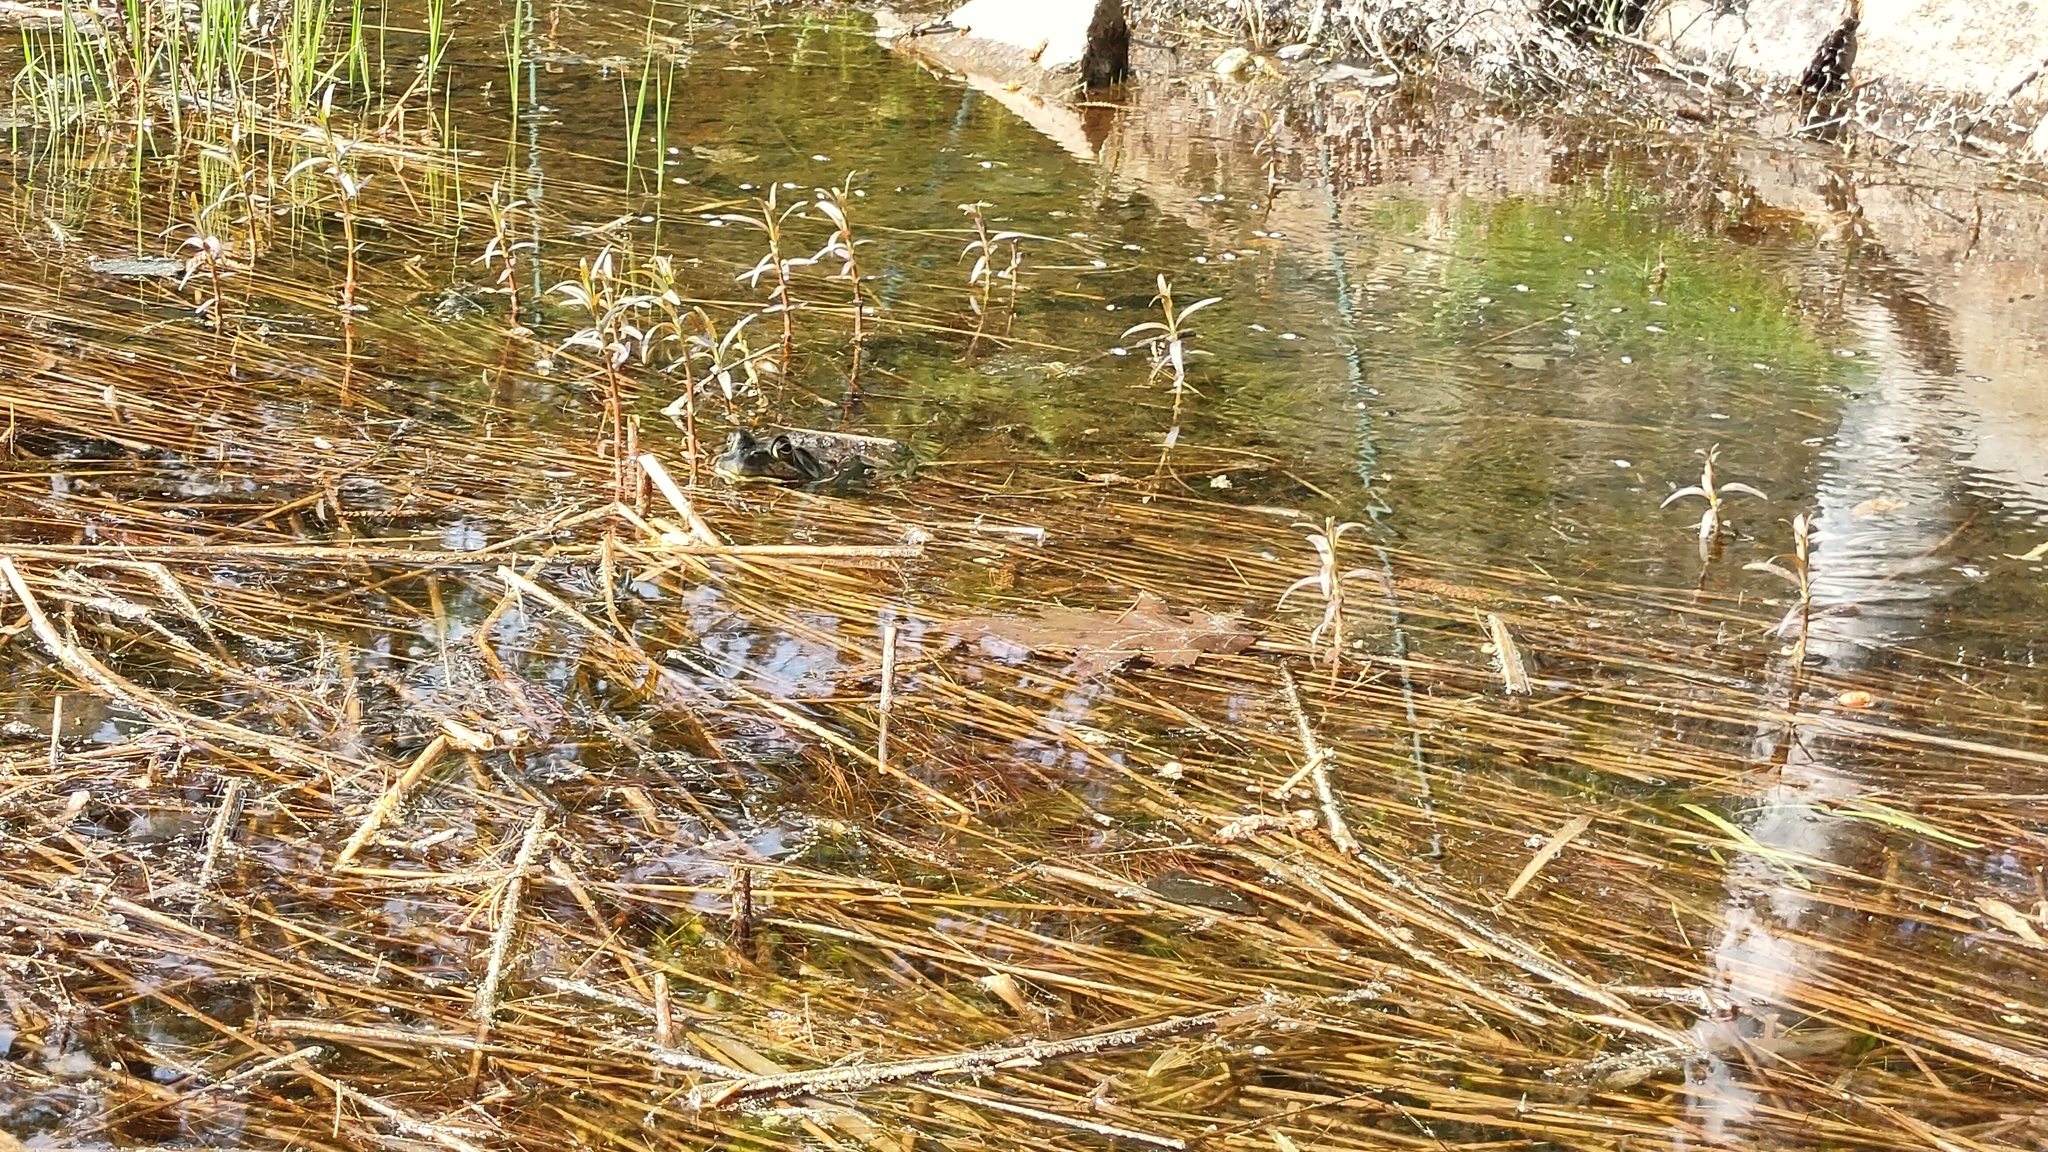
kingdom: Animalia
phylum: Chordata
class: Amphibia
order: Anura
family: Ranidae
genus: Lithobates
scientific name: Lithobates catesbeianus
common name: American bullfrog
